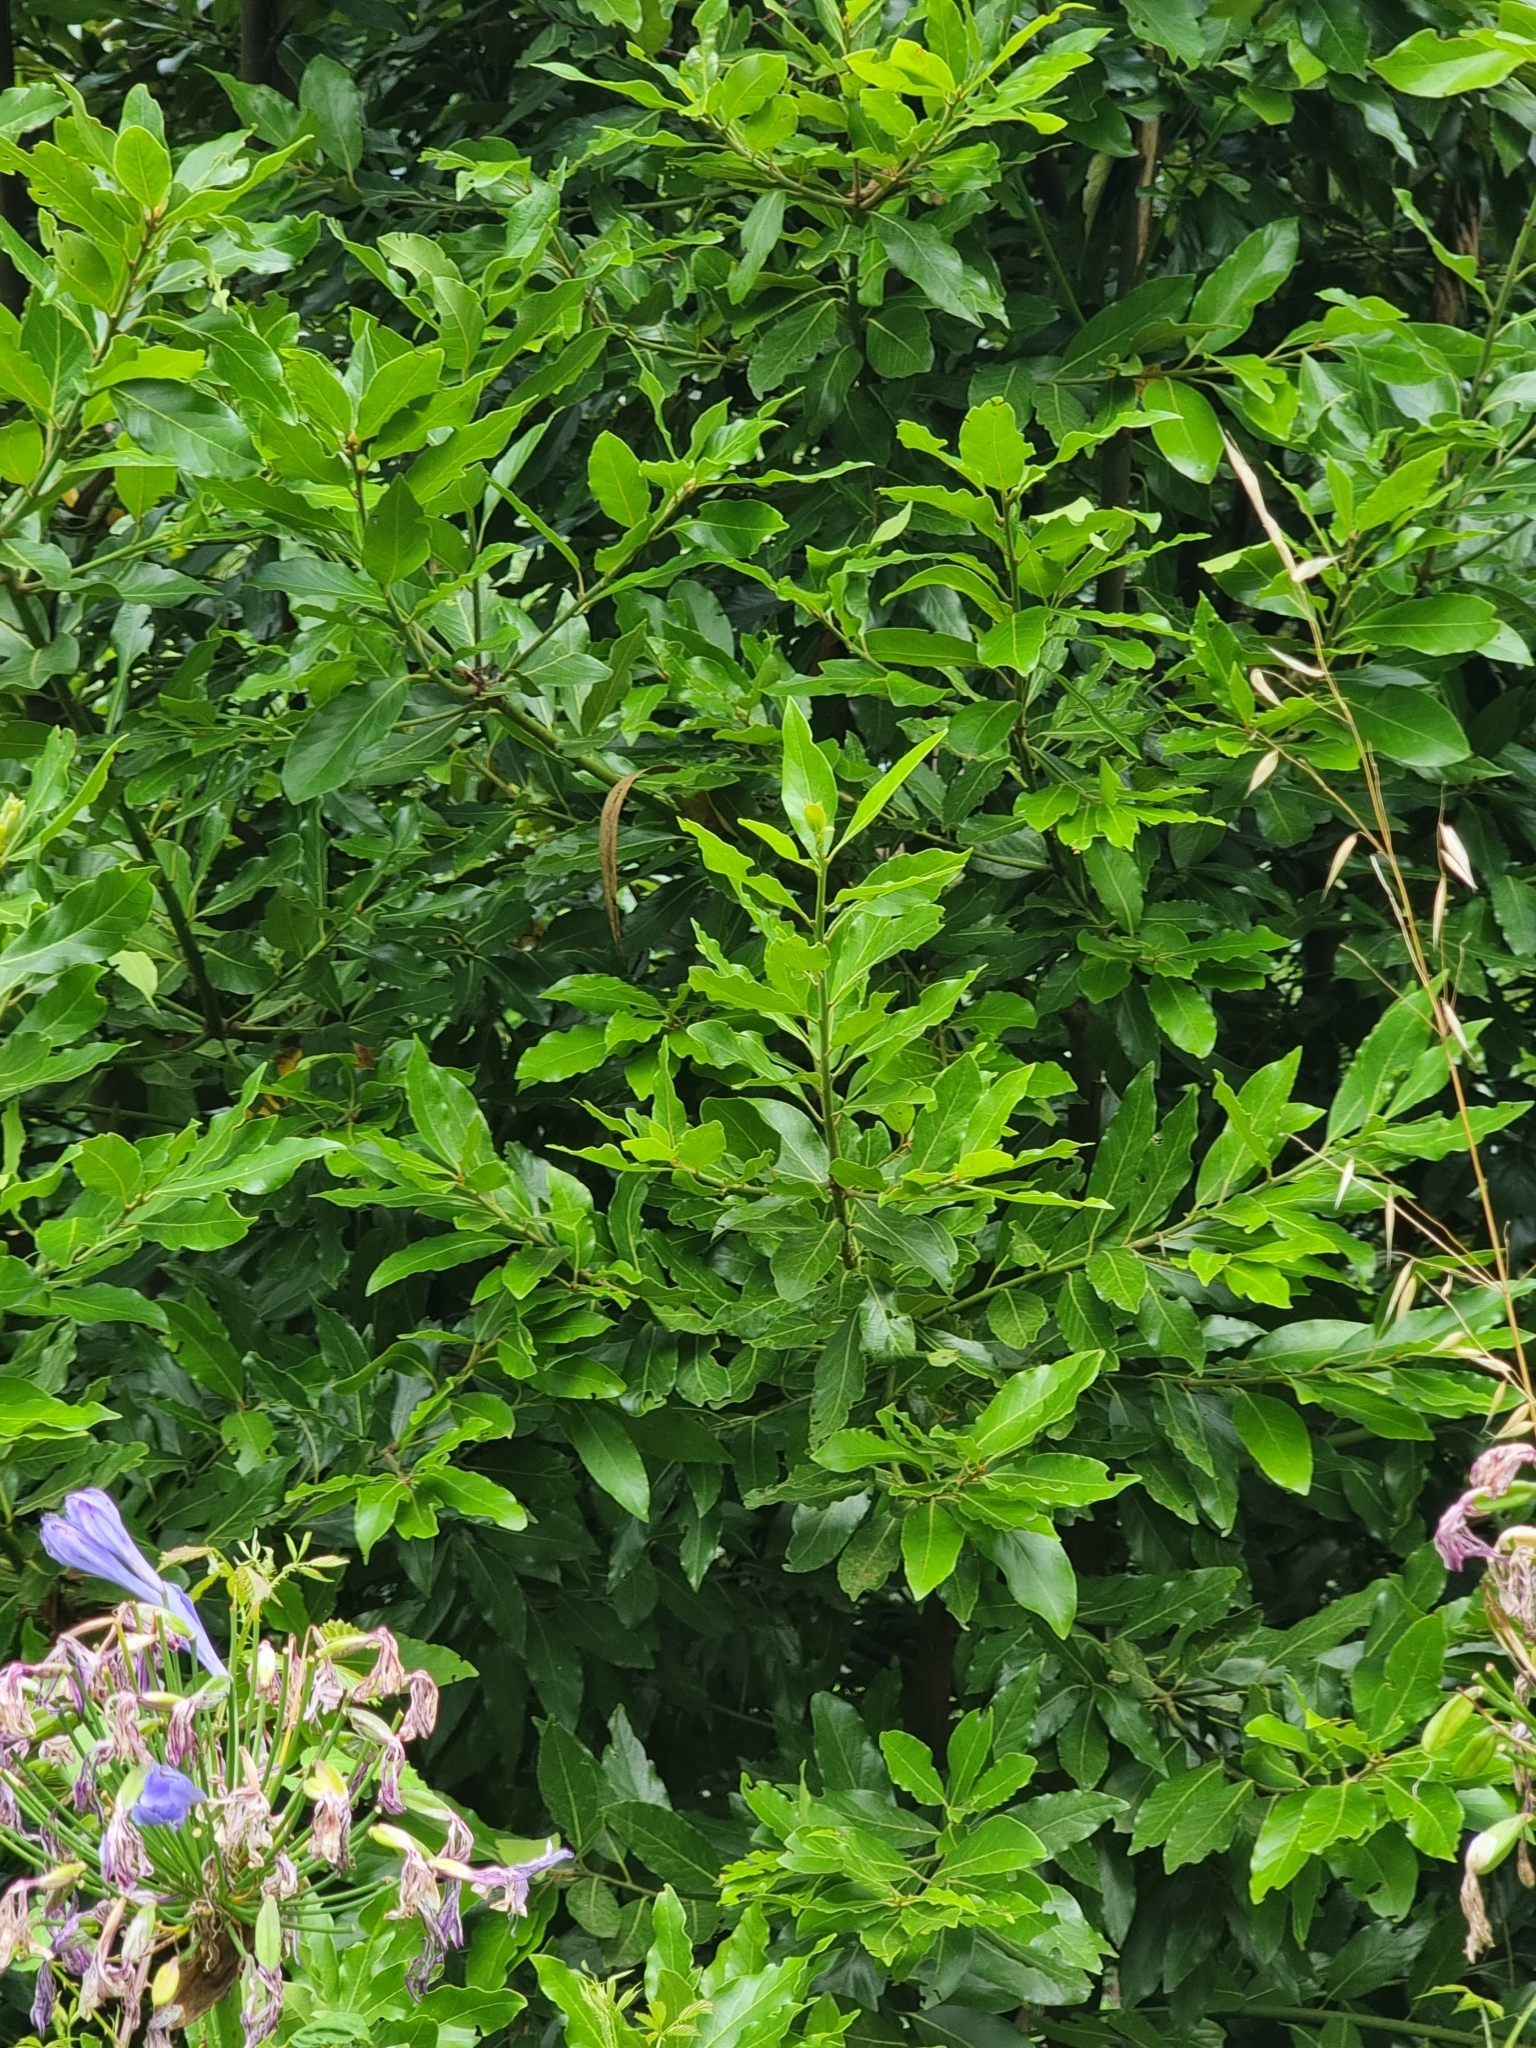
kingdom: Plantae
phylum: Tracheophyta
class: Magnoliopsida
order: Laurales
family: Lauraceae
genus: Laurus
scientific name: Laurus novocanariensis
